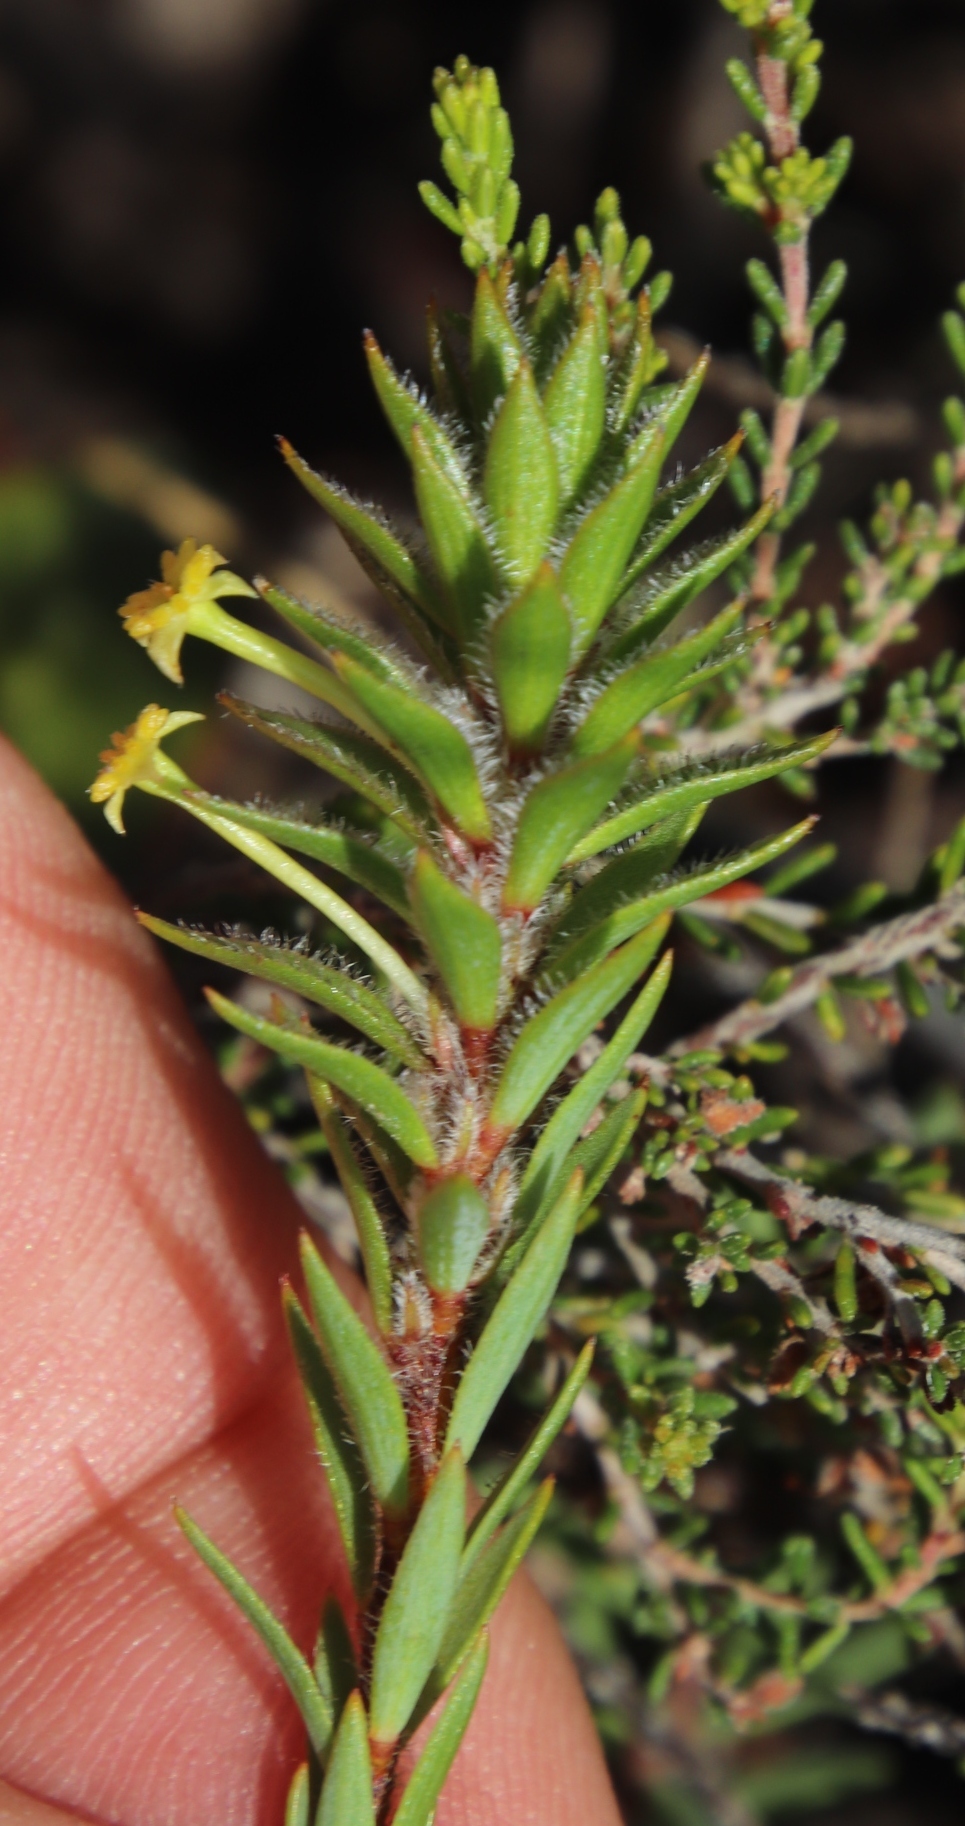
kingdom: Plantae
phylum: Tracheophyta
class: Magnoliopsida
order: Malvales
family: Thymelaeaceae
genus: Struthiola
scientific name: Struthiola mundtii
